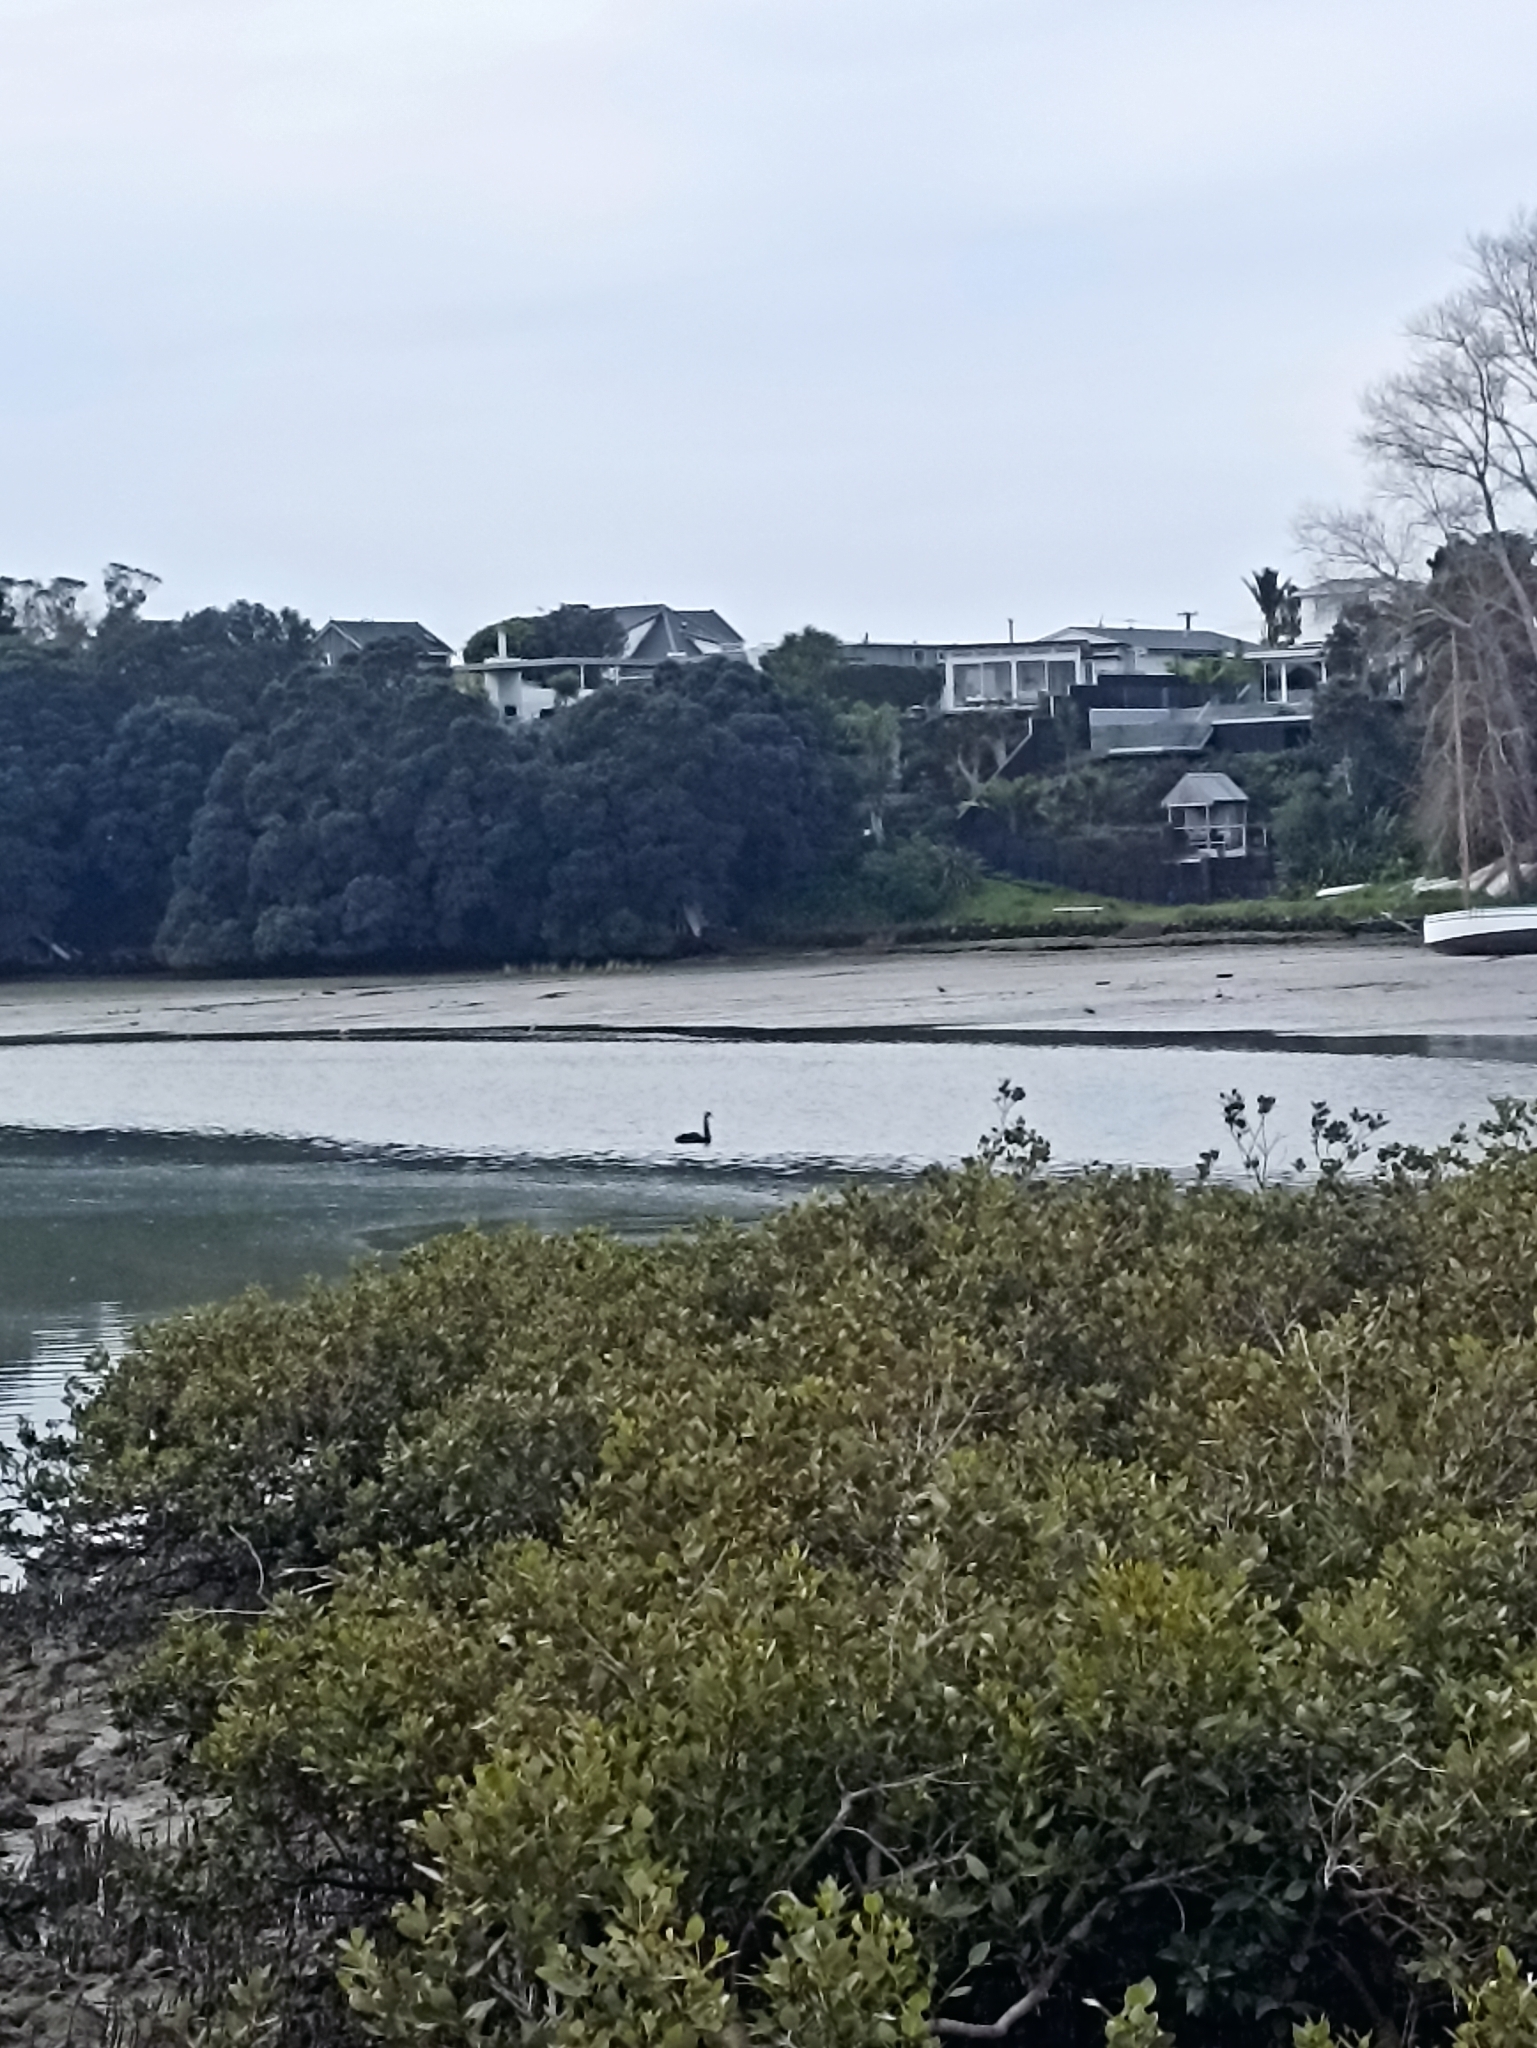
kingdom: Animalia
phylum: Chordata
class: Aves
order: Anseriformes
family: Anatidae
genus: Cygnus
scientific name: Cygnus atratus
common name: Black swan
